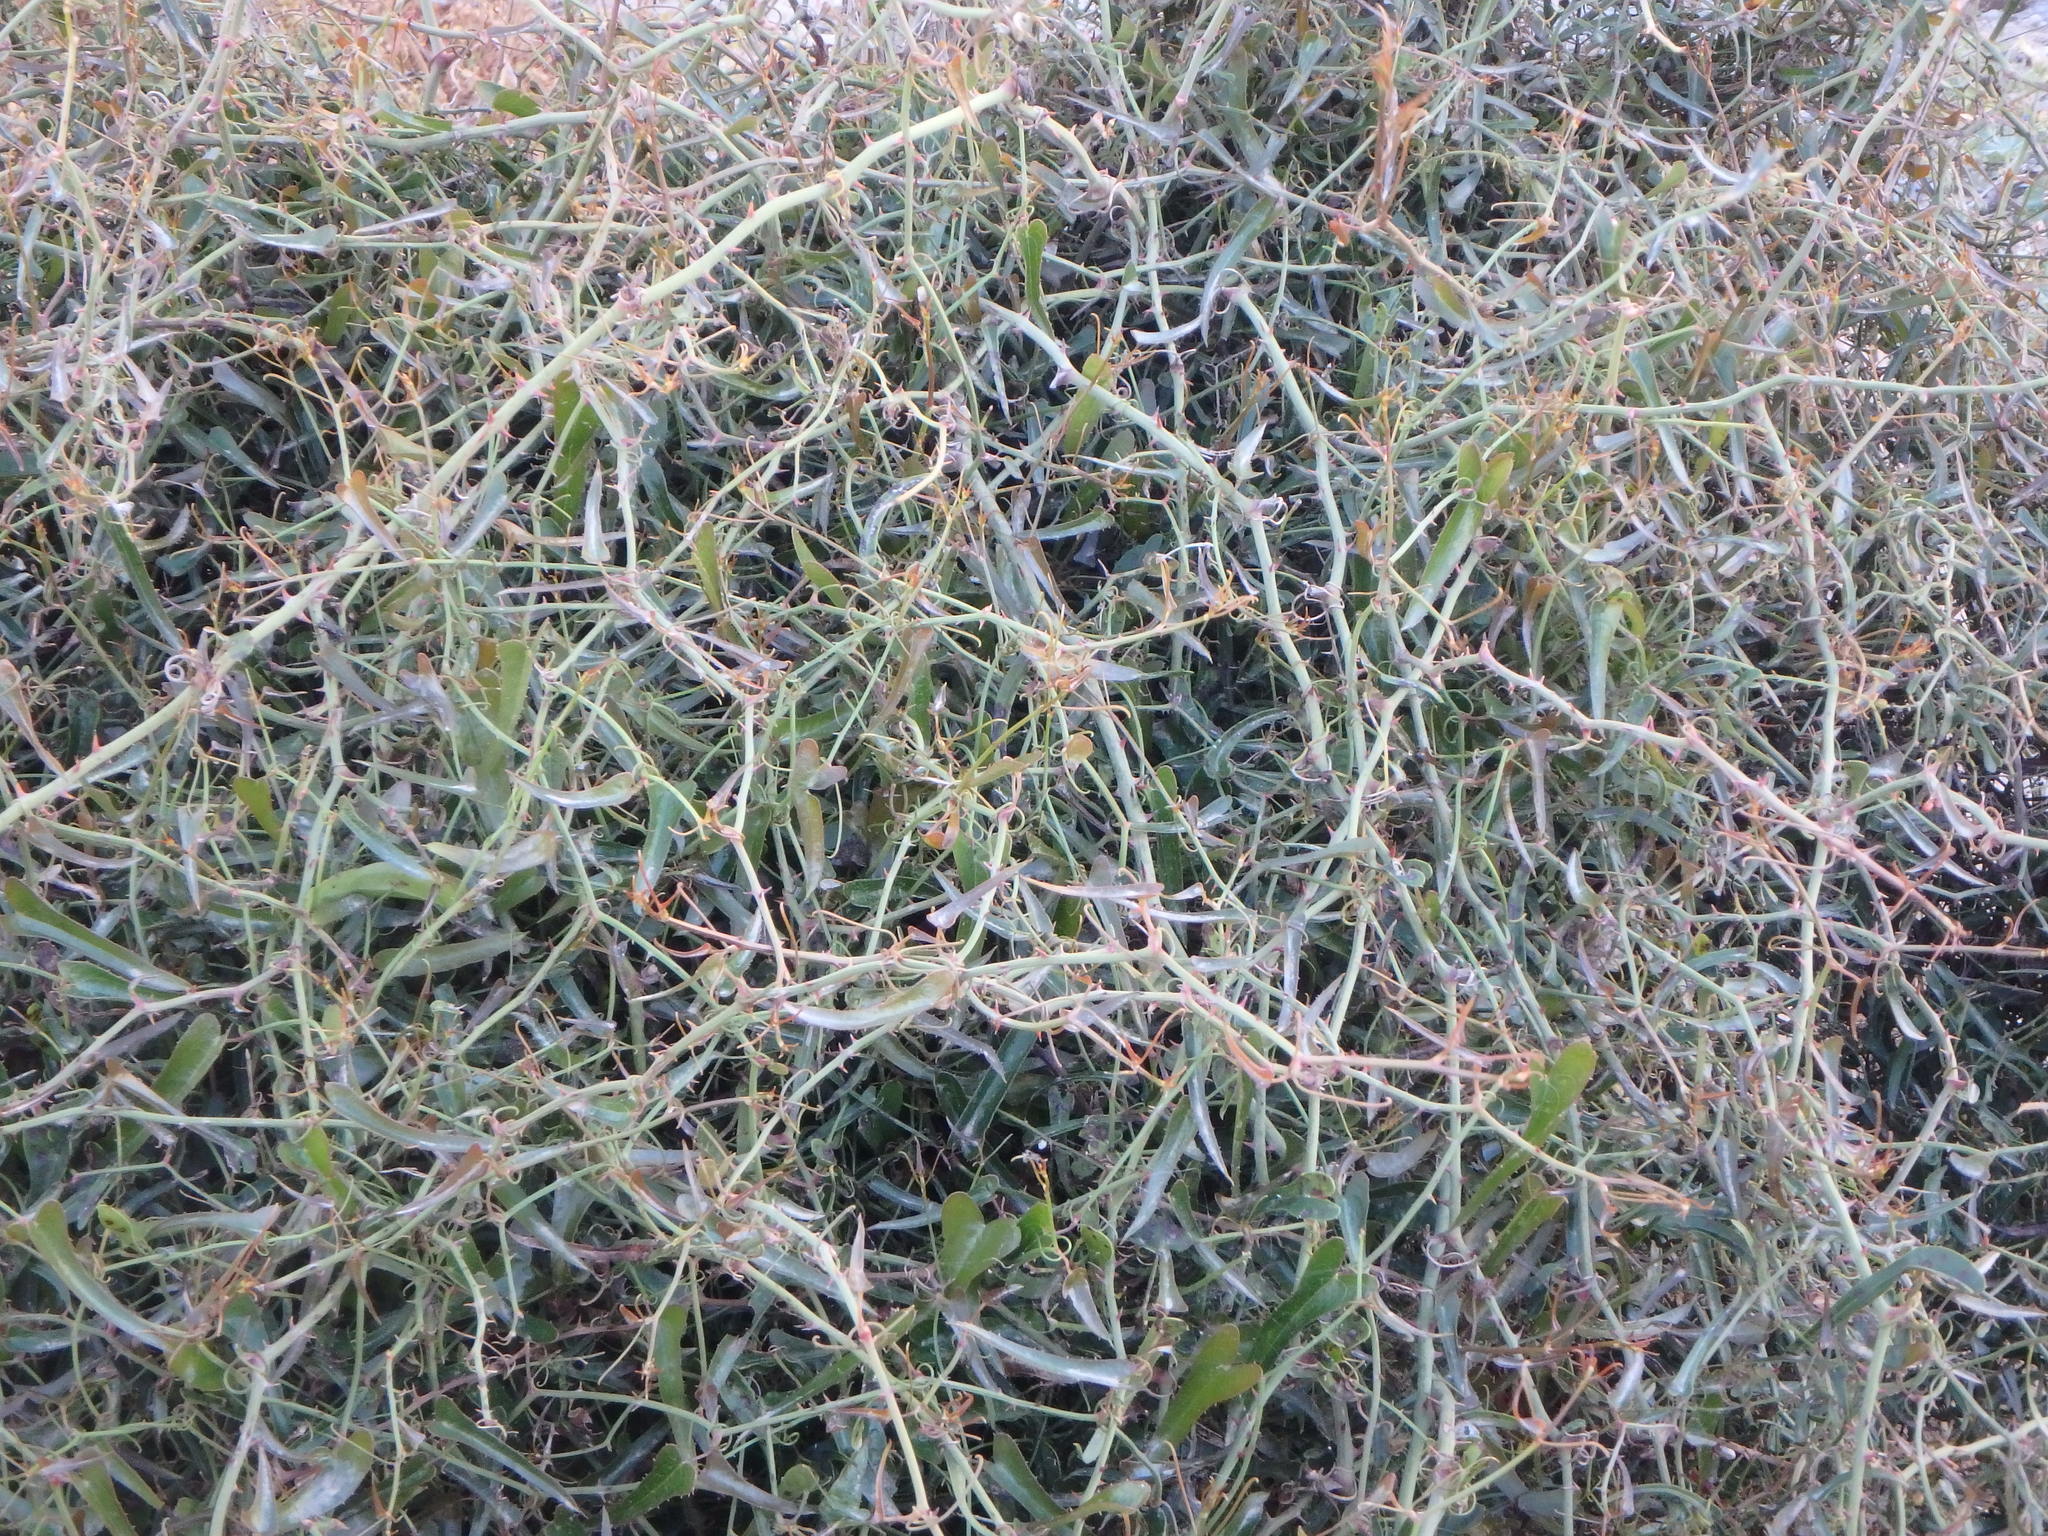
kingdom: Plantae
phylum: Tracheophyta
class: Liliopsida
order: Liliales
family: Smilacaceae
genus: Smilax
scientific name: Smilax aspera
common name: Common smilax
